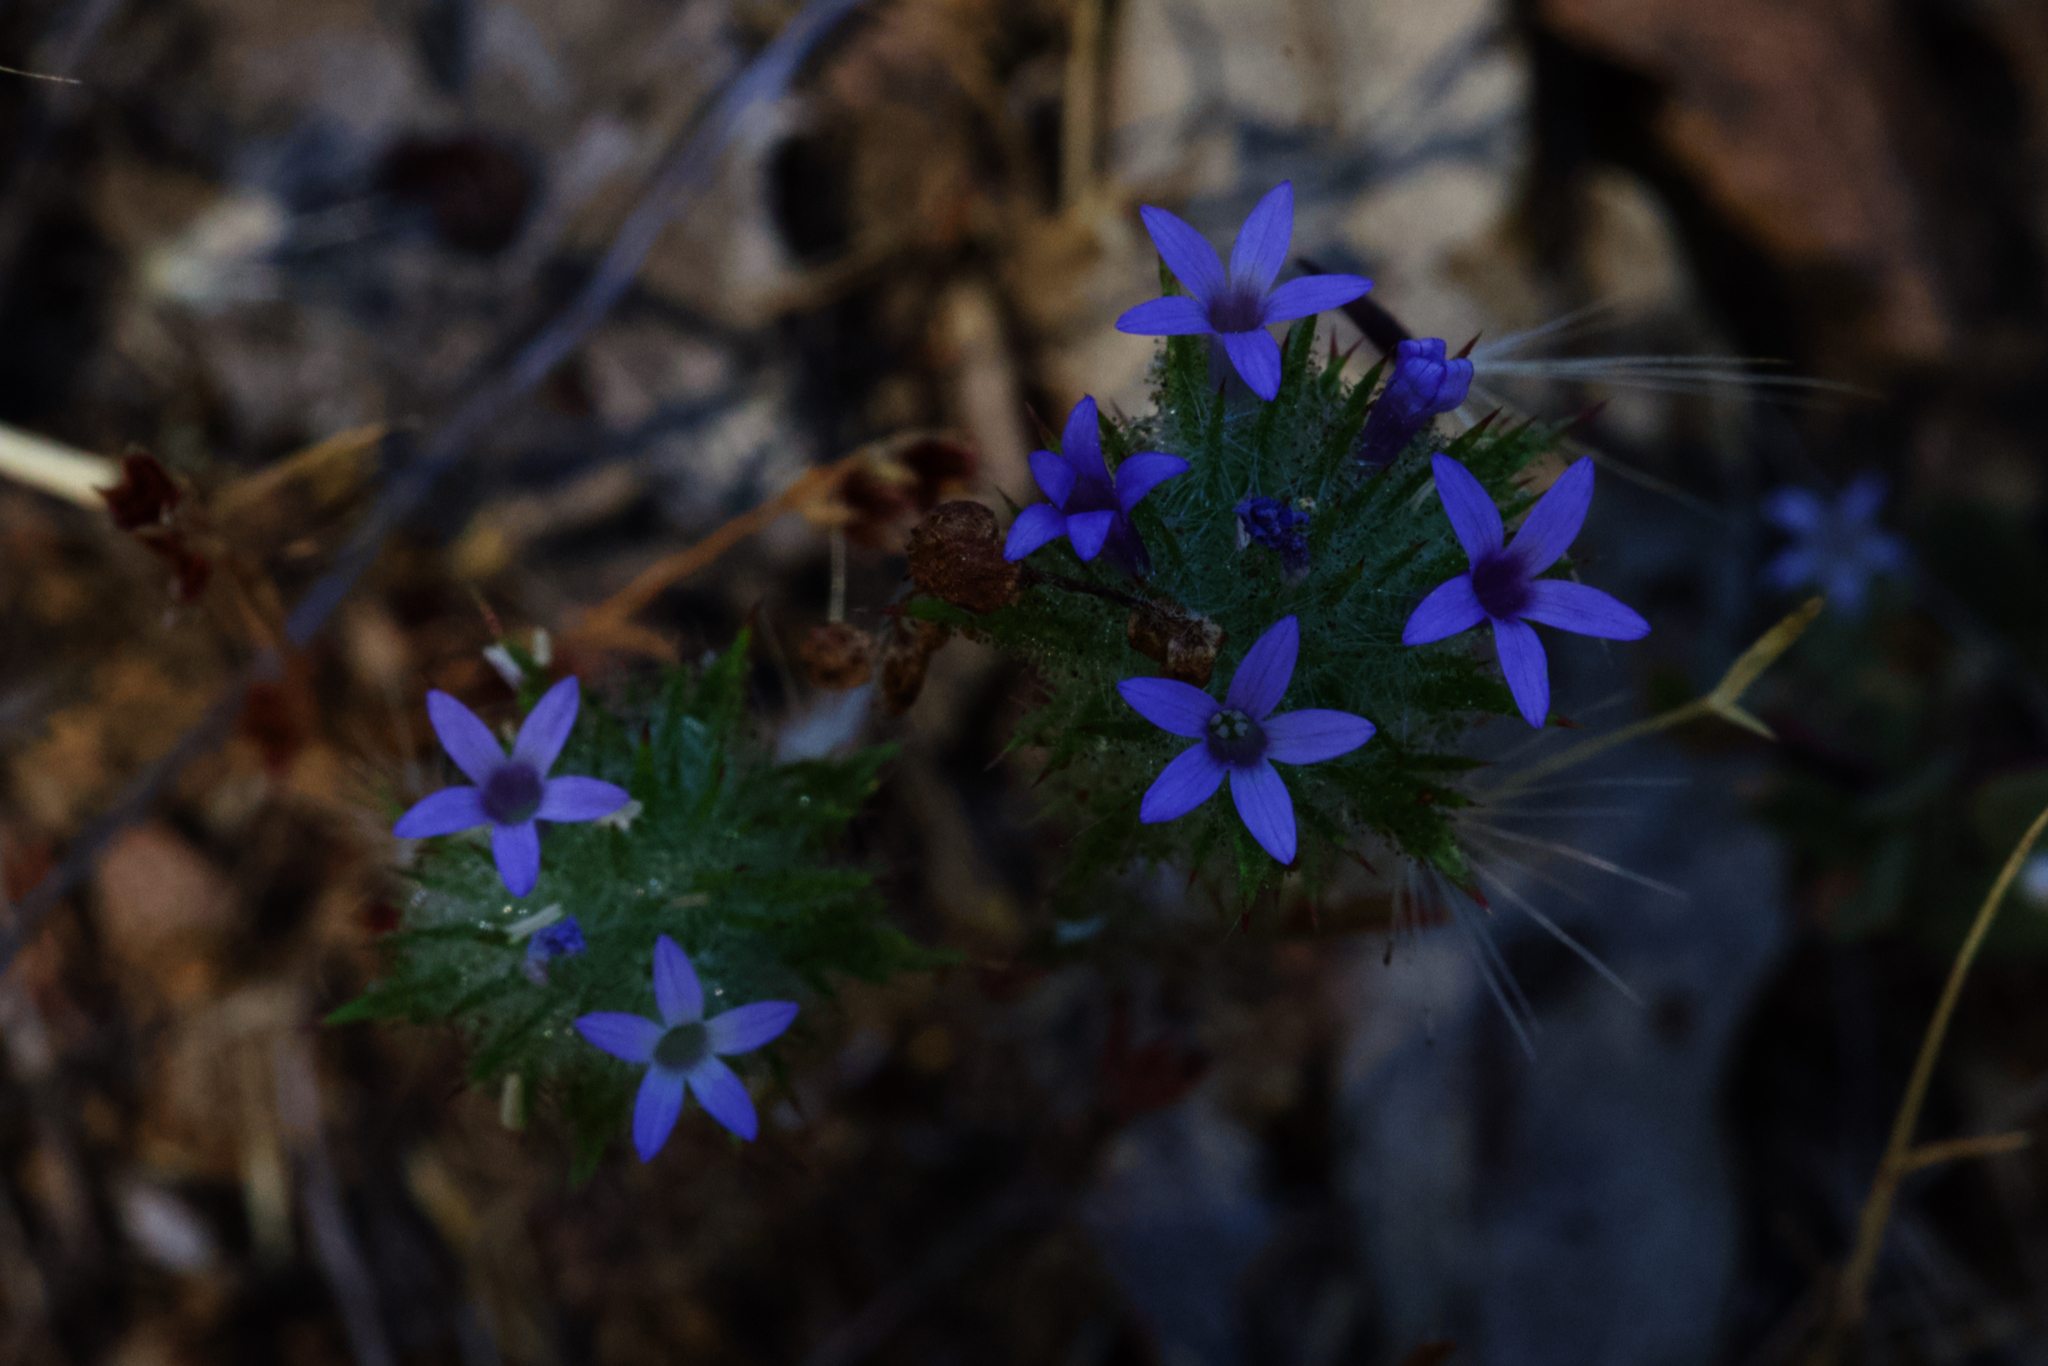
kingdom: Plantae
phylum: Tracheophyta
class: Magnoliopsida
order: Ericales
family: Polemoniaceae
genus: Navarretia
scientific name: Navarretia squarrosa
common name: Skunkweed
